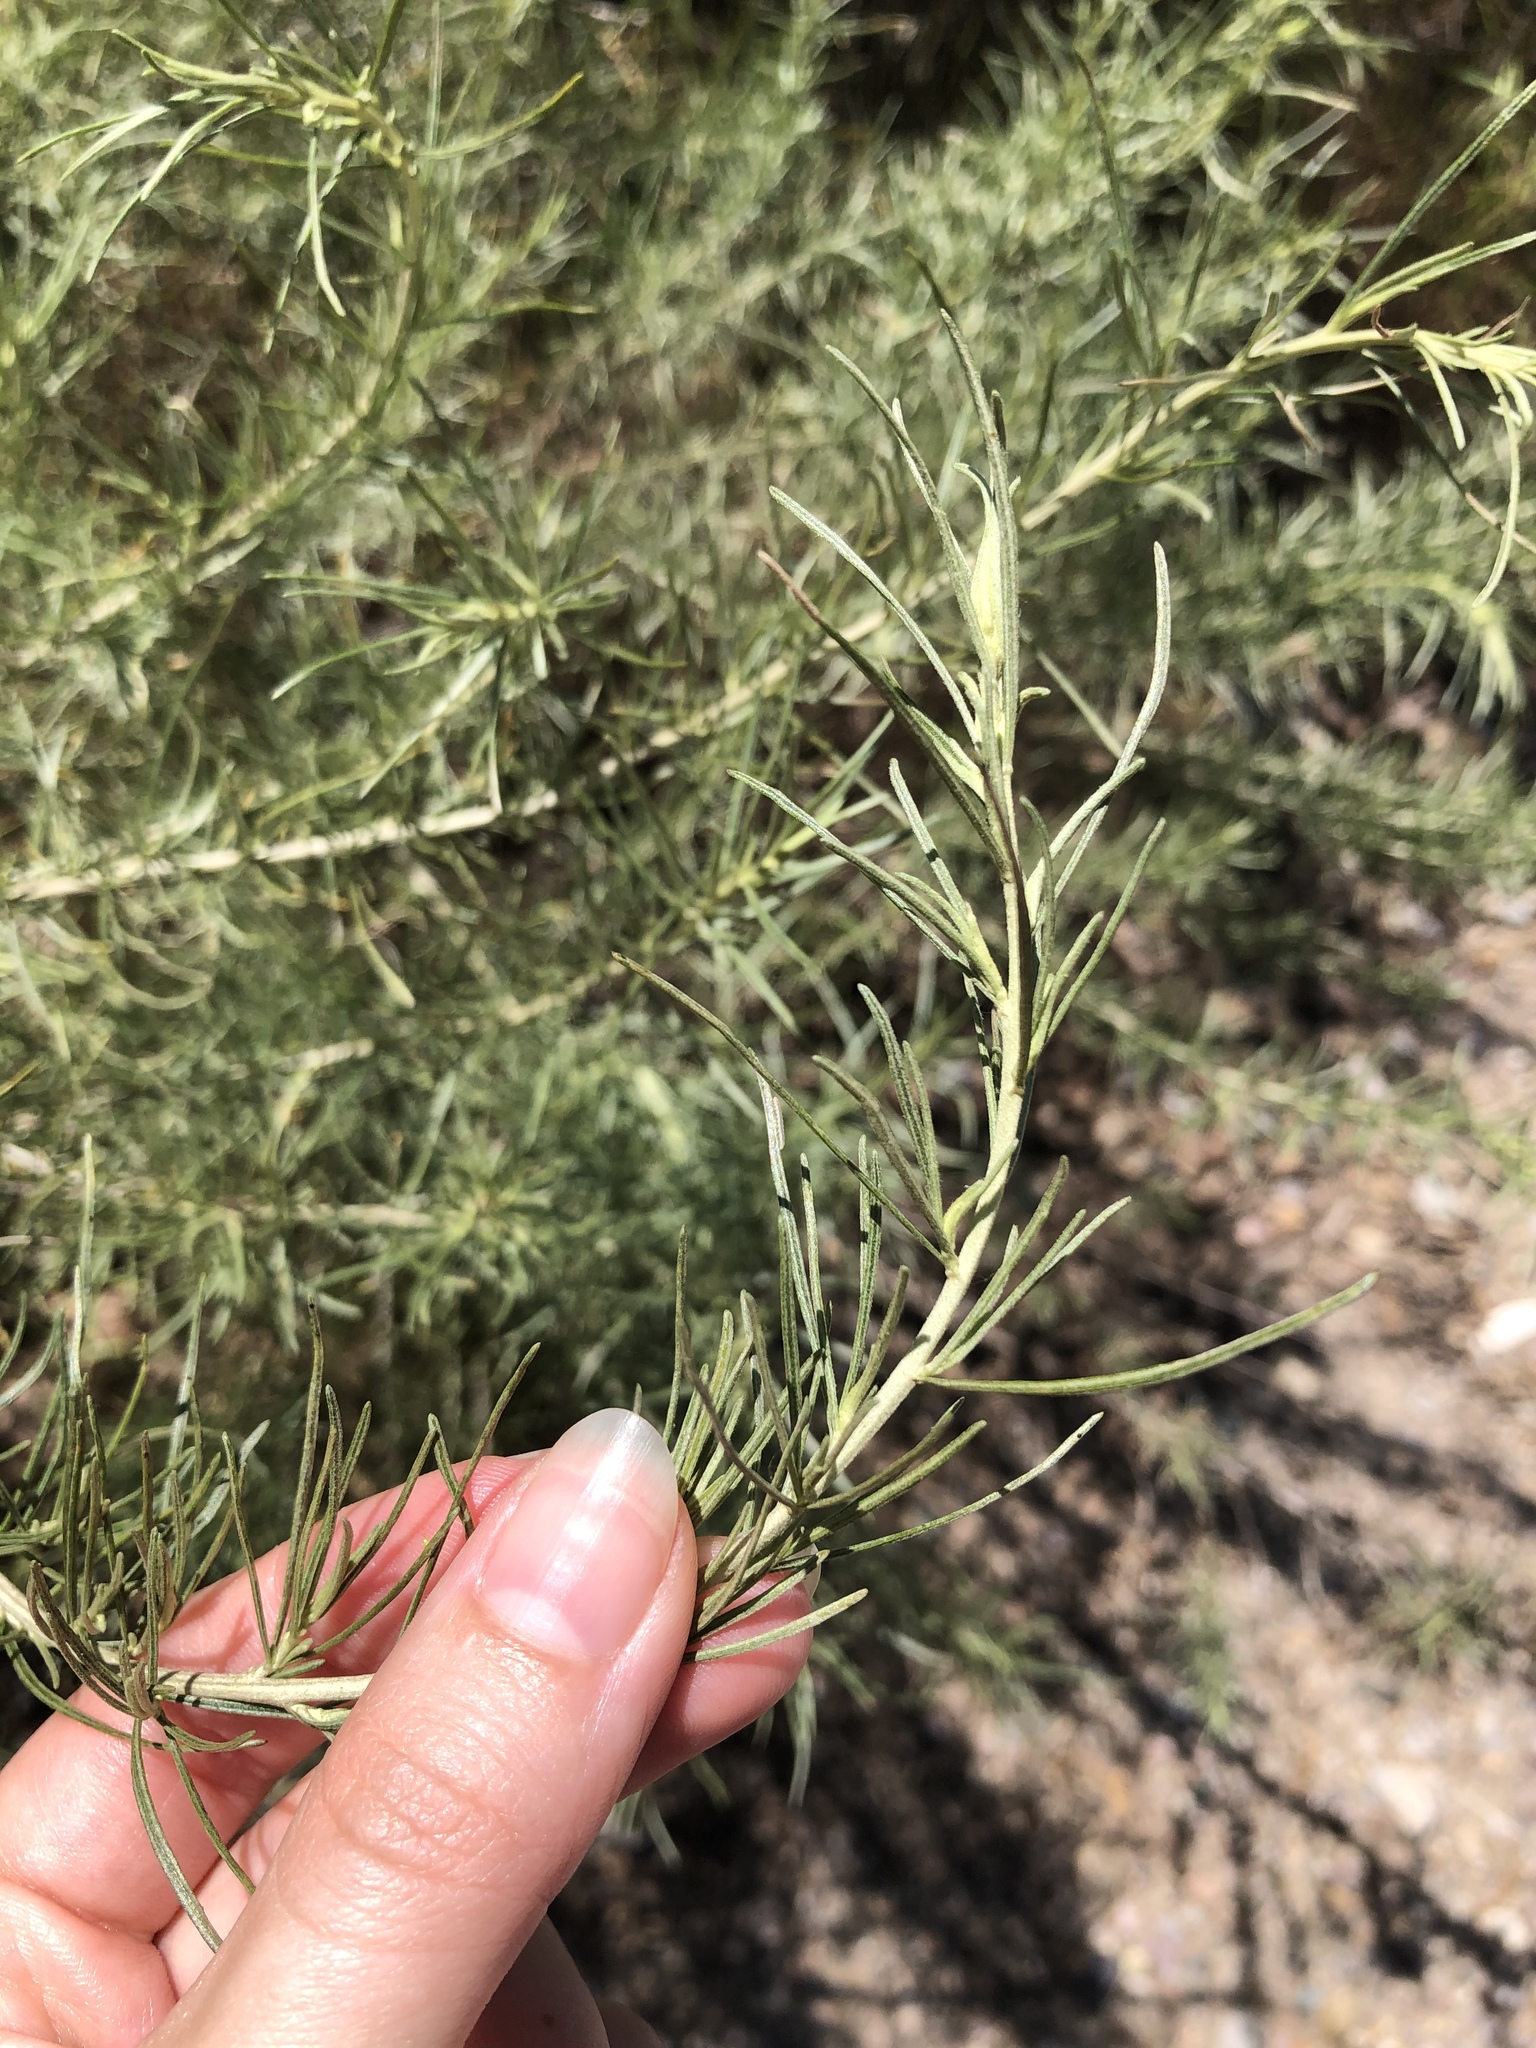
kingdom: Plantae
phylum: Tracheophyta
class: Magnoliopsida
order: Asterales
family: Asteraceae
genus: Artemisia
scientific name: Artemisia californica
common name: California sagebrush
